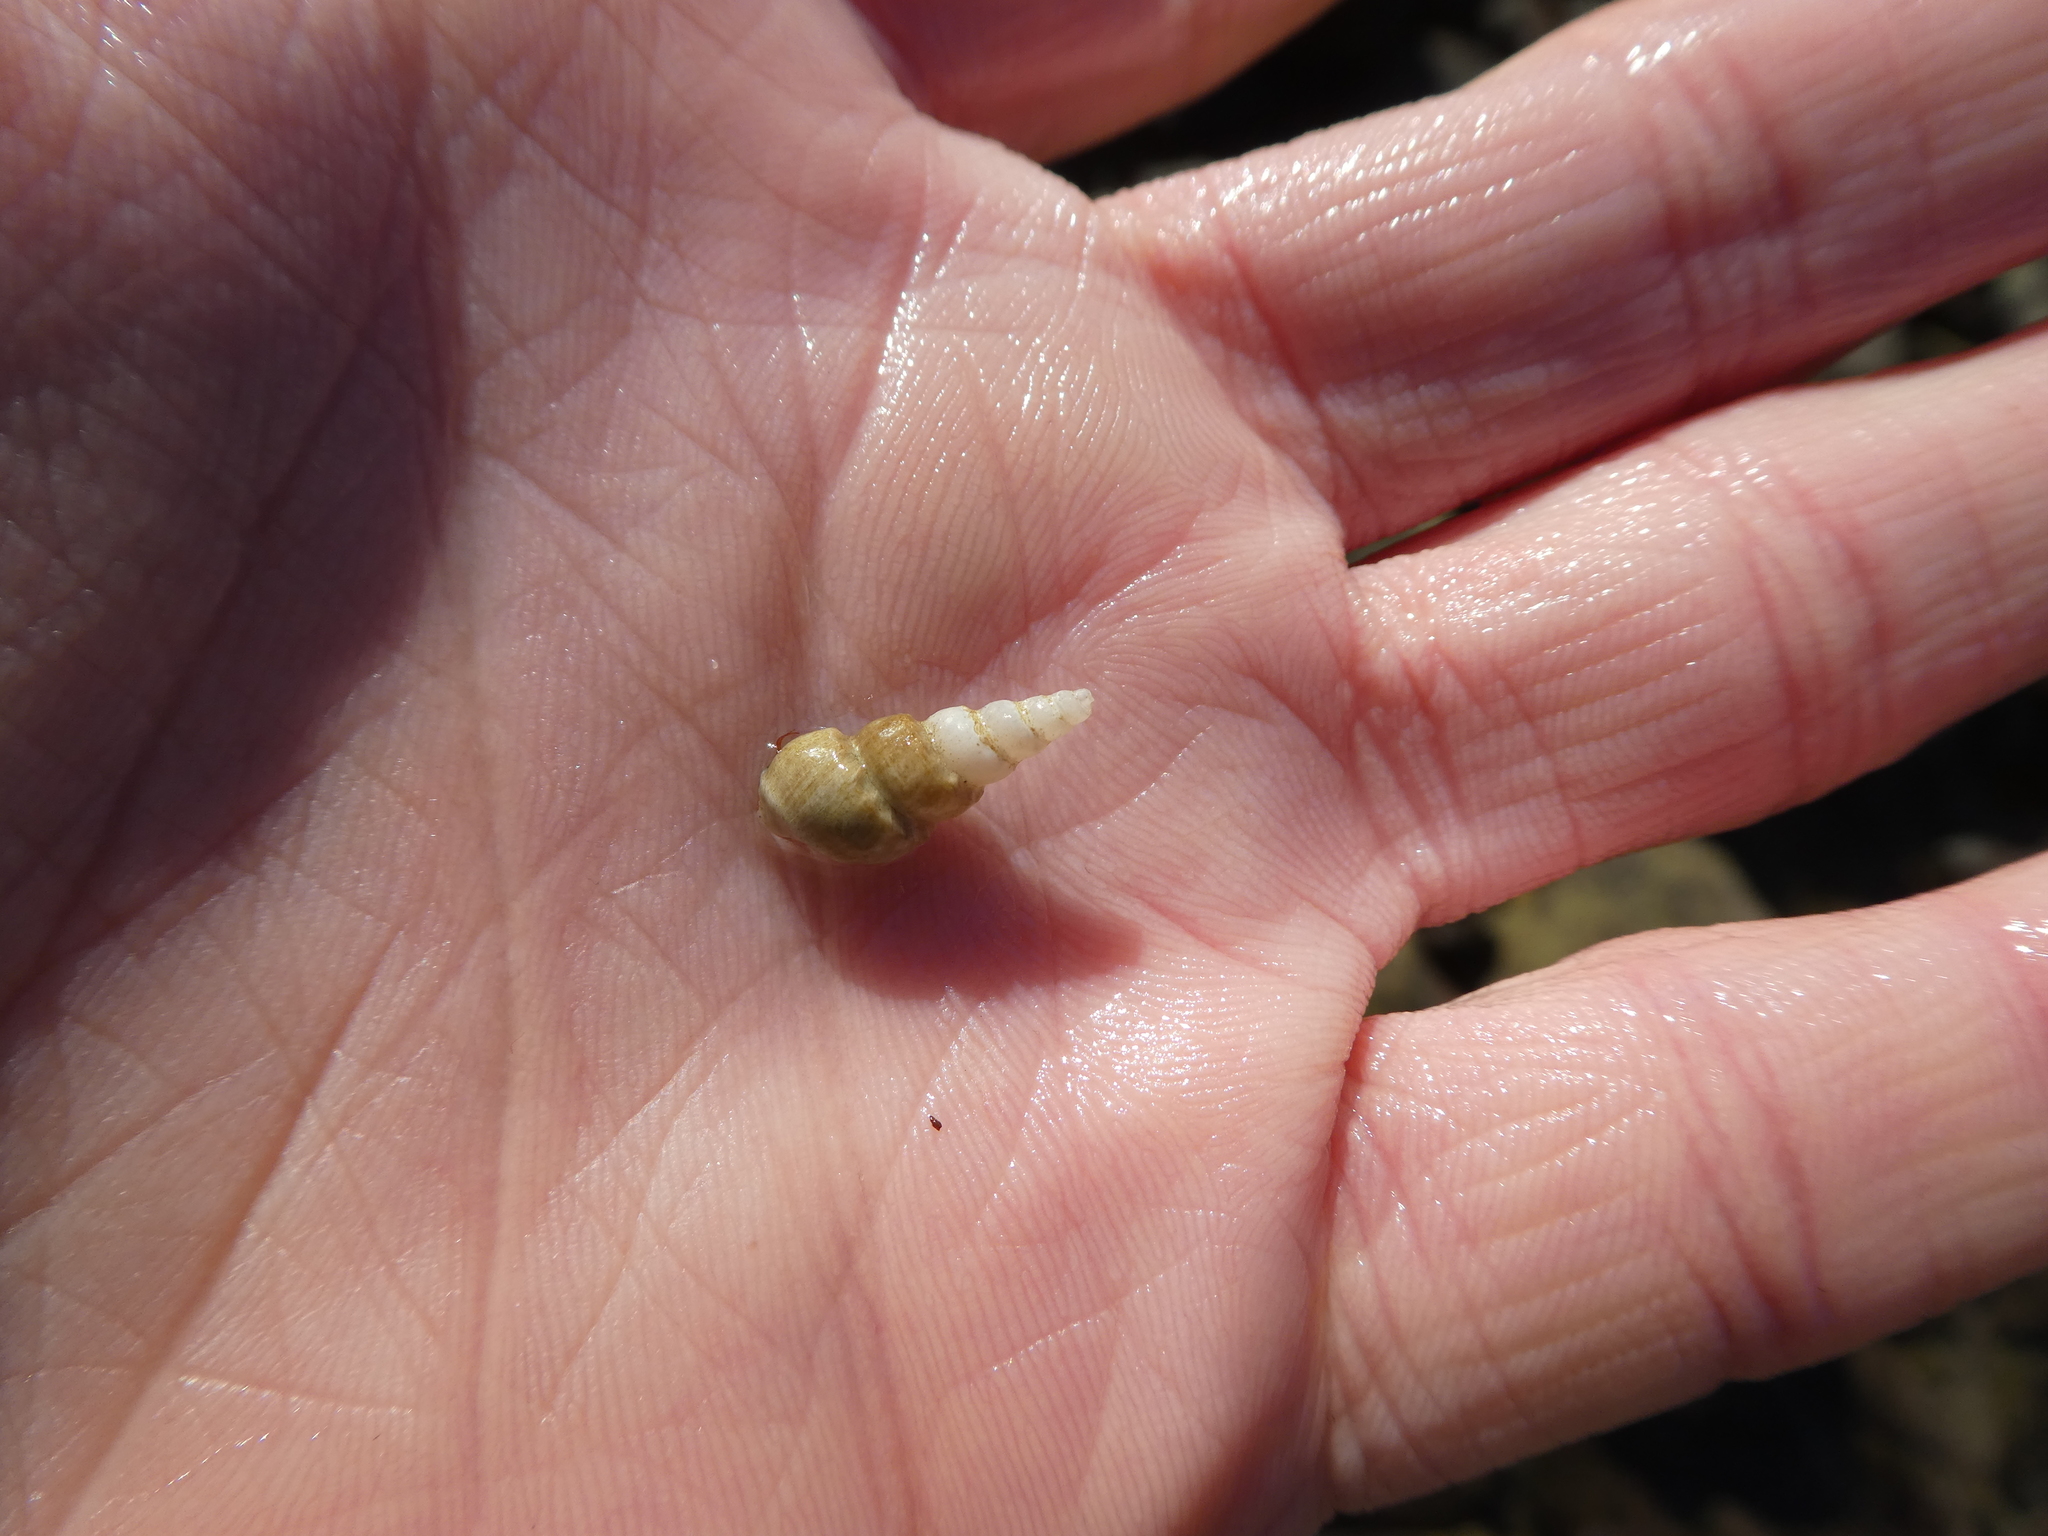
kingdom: Animalia
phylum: Mollusca
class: Gastropoda
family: Epitoniidae
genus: Opalia
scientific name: Opalia funiculata
